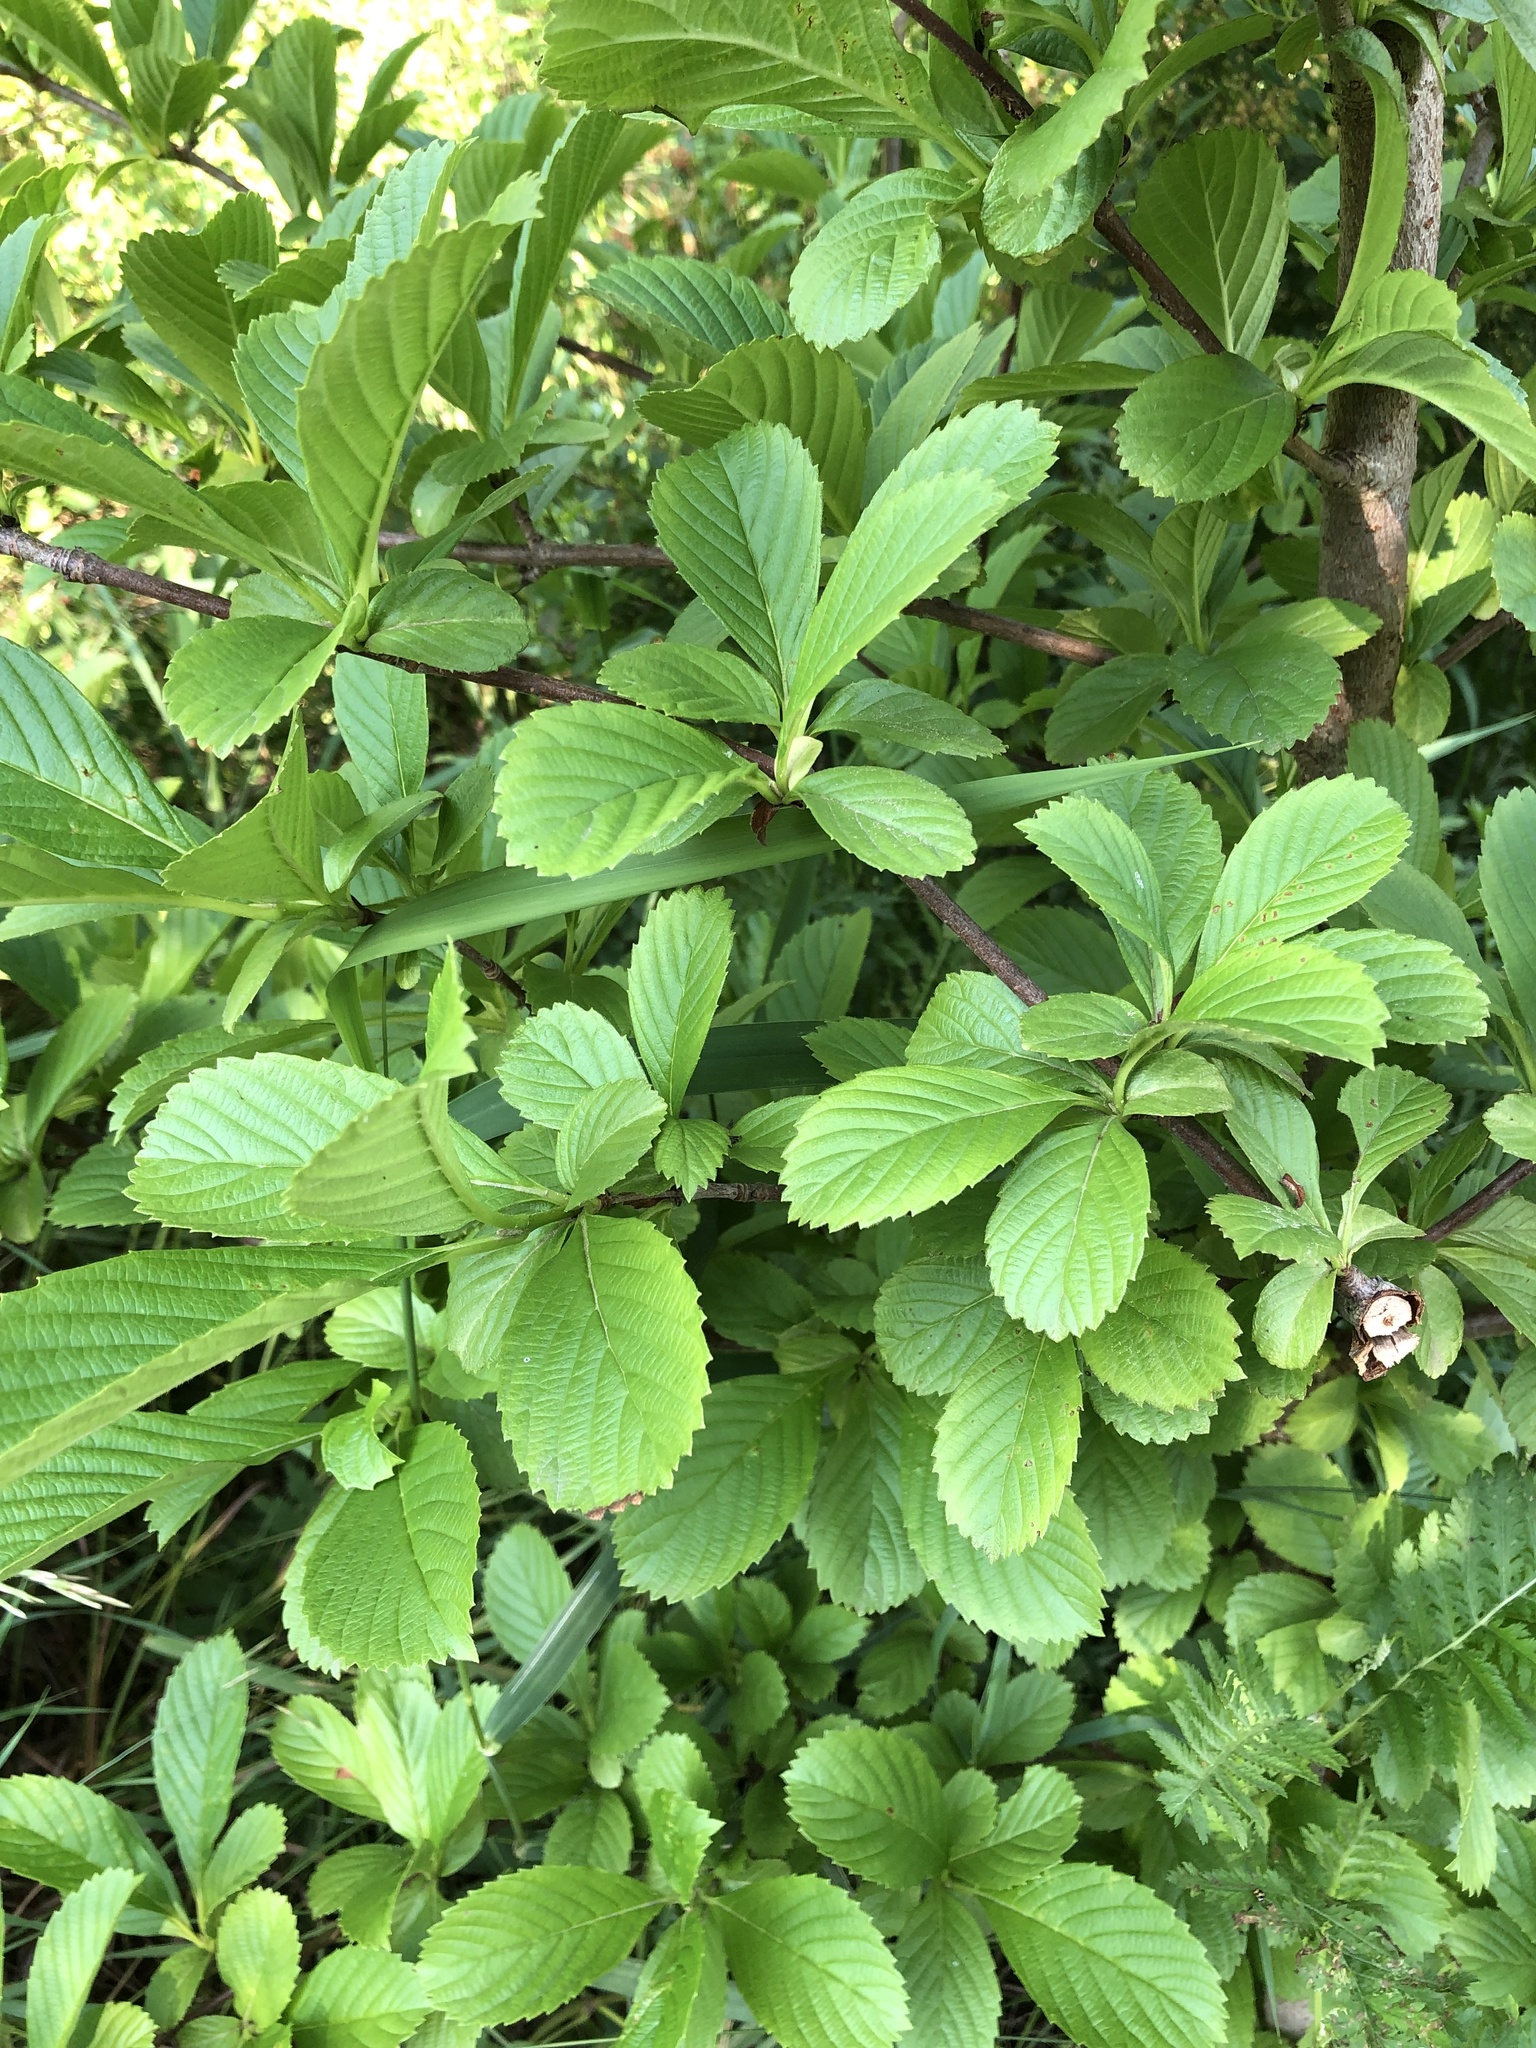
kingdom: Plantae
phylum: Tracheophyta
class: Magnoliopsida
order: Dipsacales
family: Viburnaceae
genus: Viburnum
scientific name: Viburnum sieboldii
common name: Siebold's arrowwood
